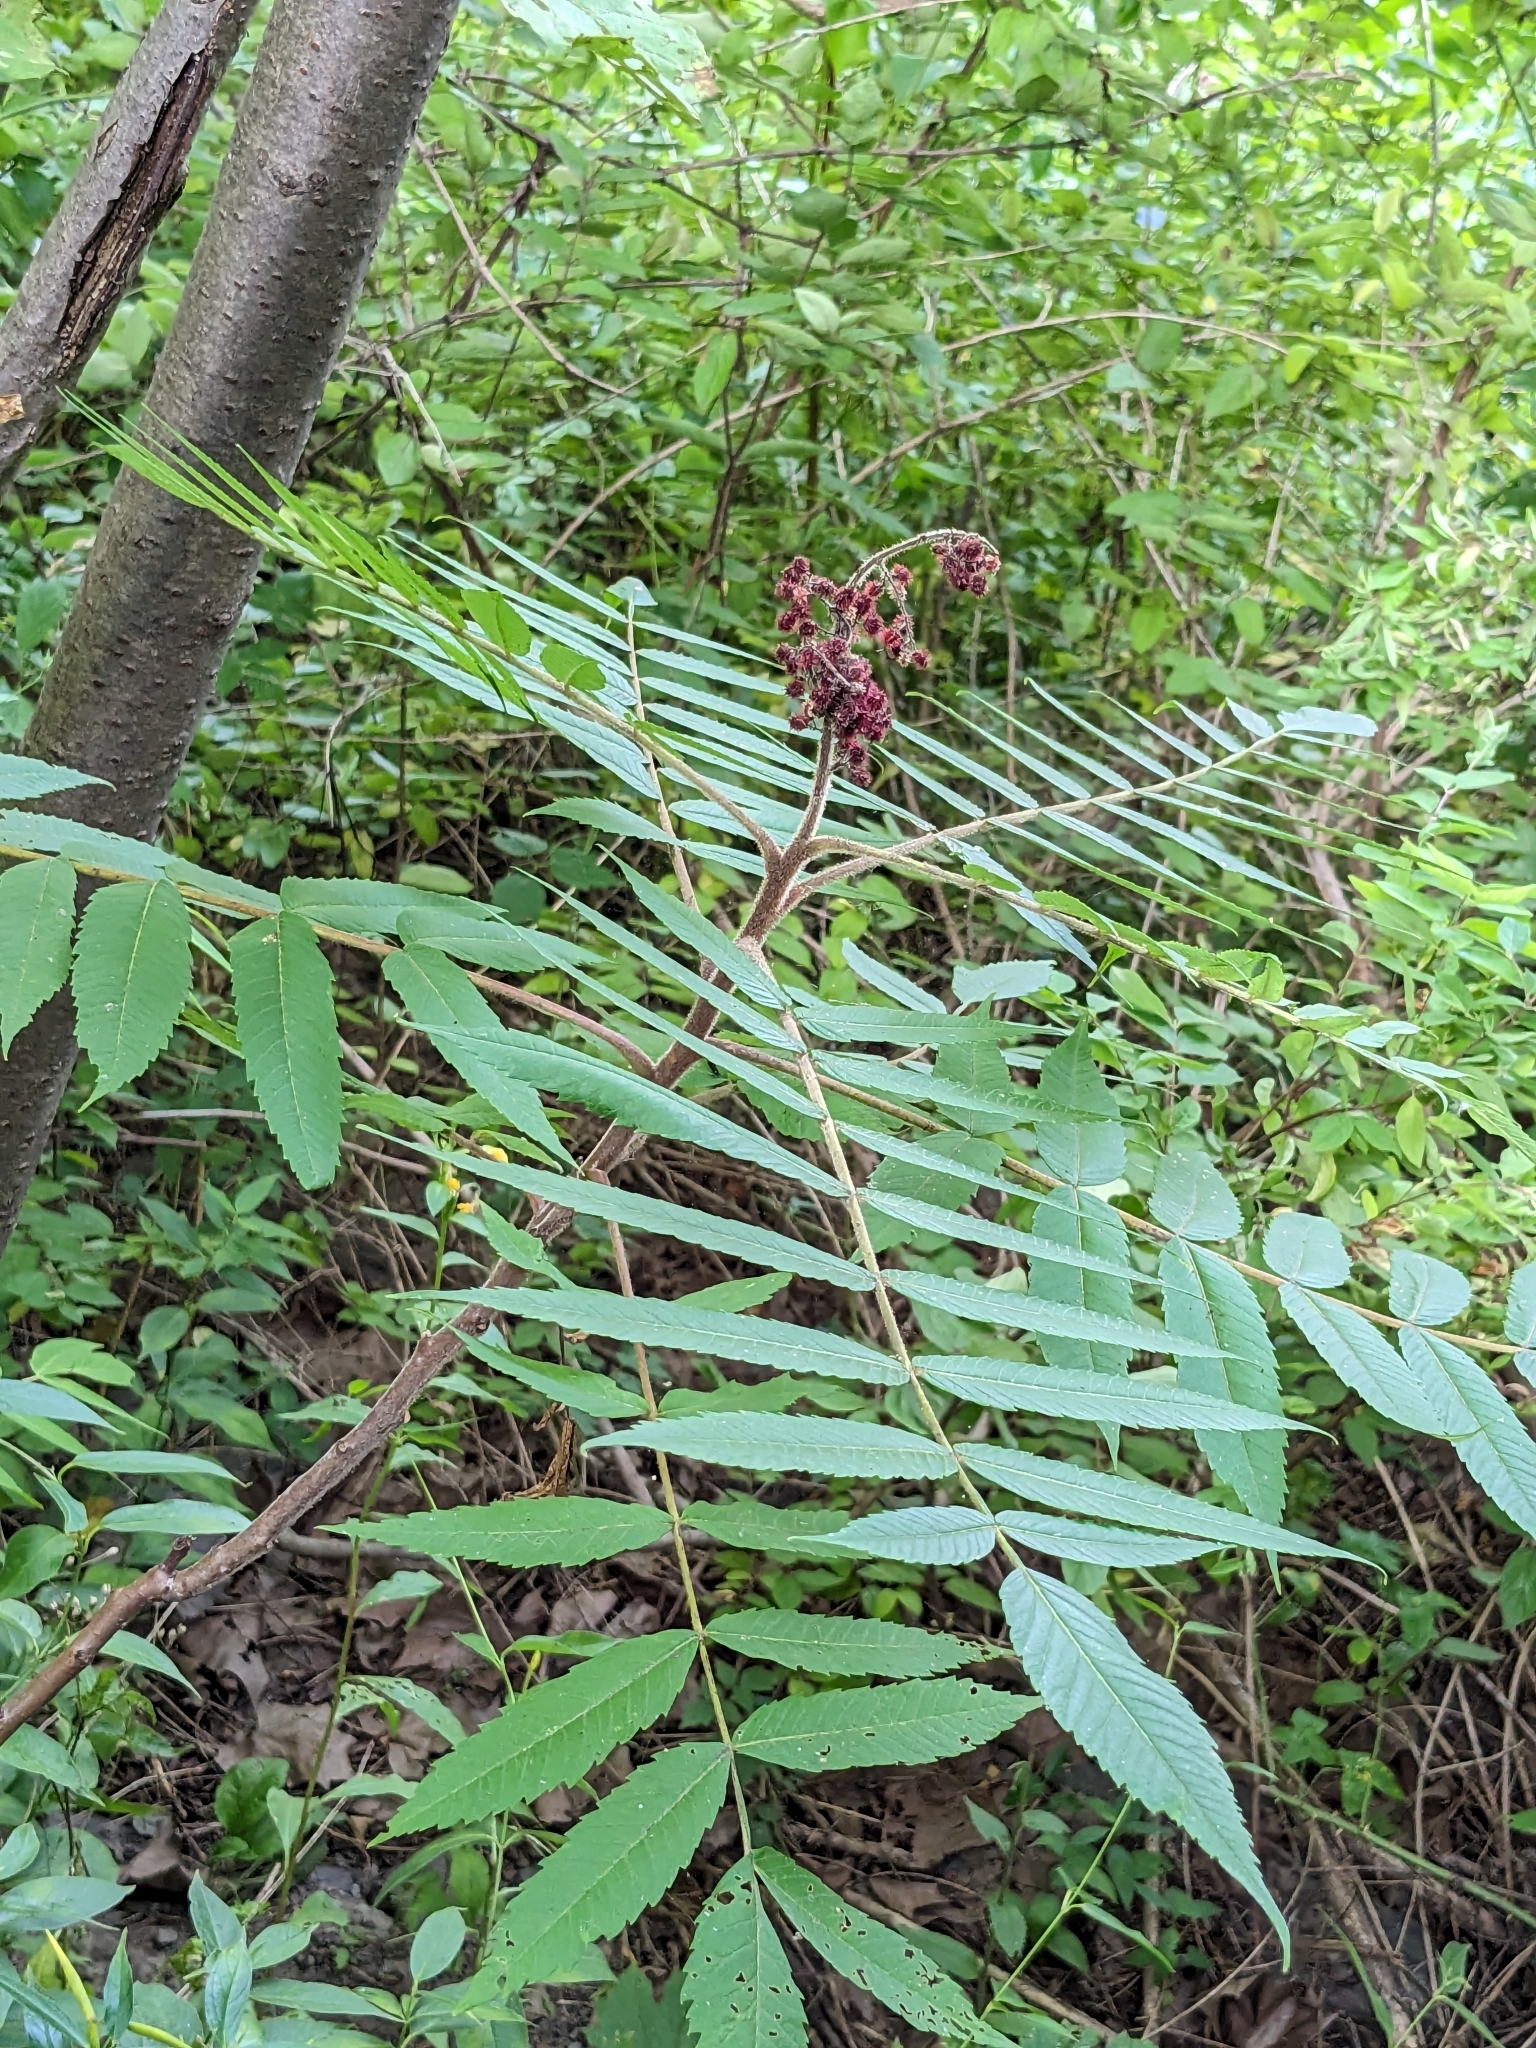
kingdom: Plantae
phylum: Tracheophyta
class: Magnoliopsida
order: Sapindales
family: Anacardiaceae
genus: Rhus
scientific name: Rhus typhina
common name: Staghorn sumac
